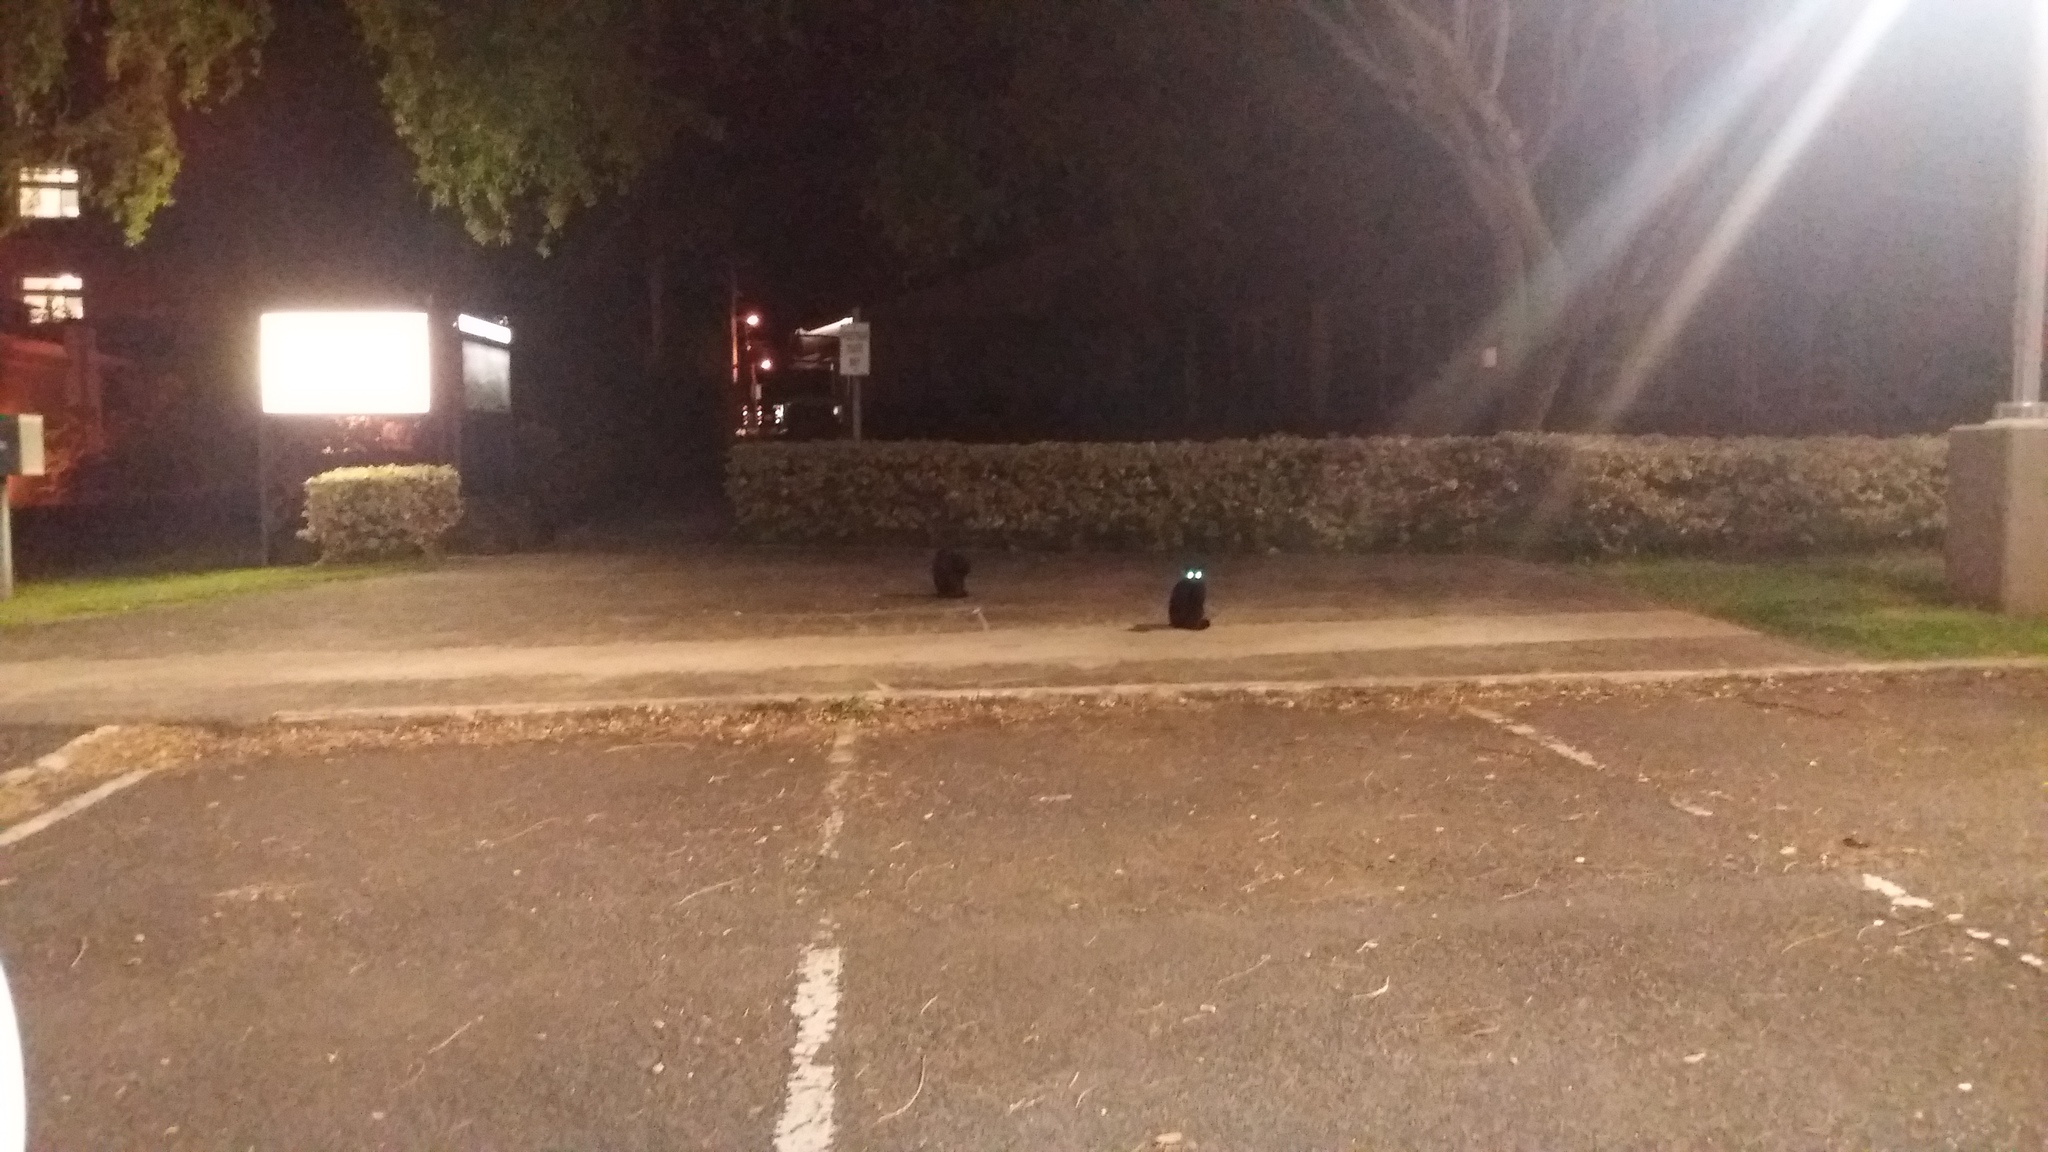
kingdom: Animalia
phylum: Chordata
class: Mammalia
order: Carnivora
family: Felidae
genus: Felis
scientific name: Felis catus
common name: Domestic cat
